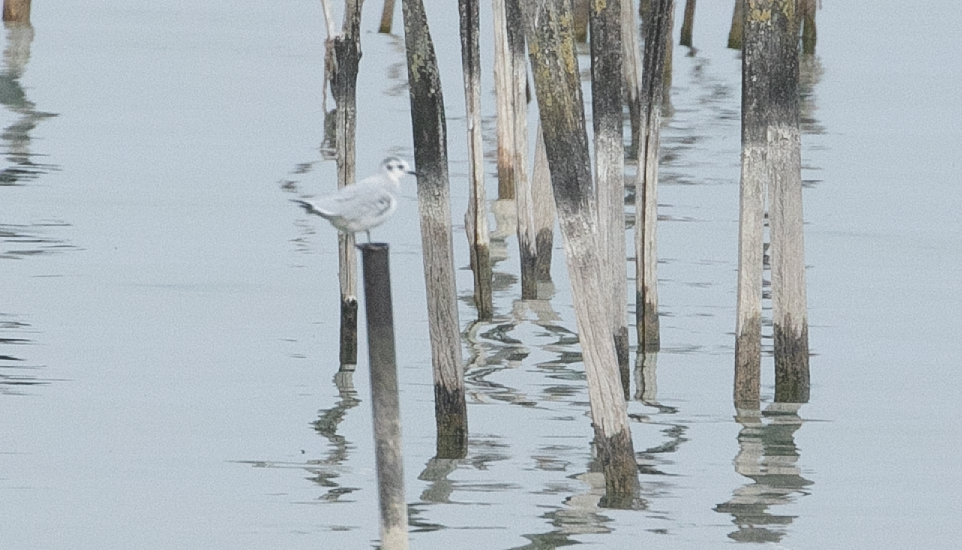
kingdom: Animalia
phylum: Chordata
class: Aves
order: Charadriiformes
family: Laridae
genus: Hydrocoloeus
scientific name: Hydrocoloeus minutus
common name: Little gull
